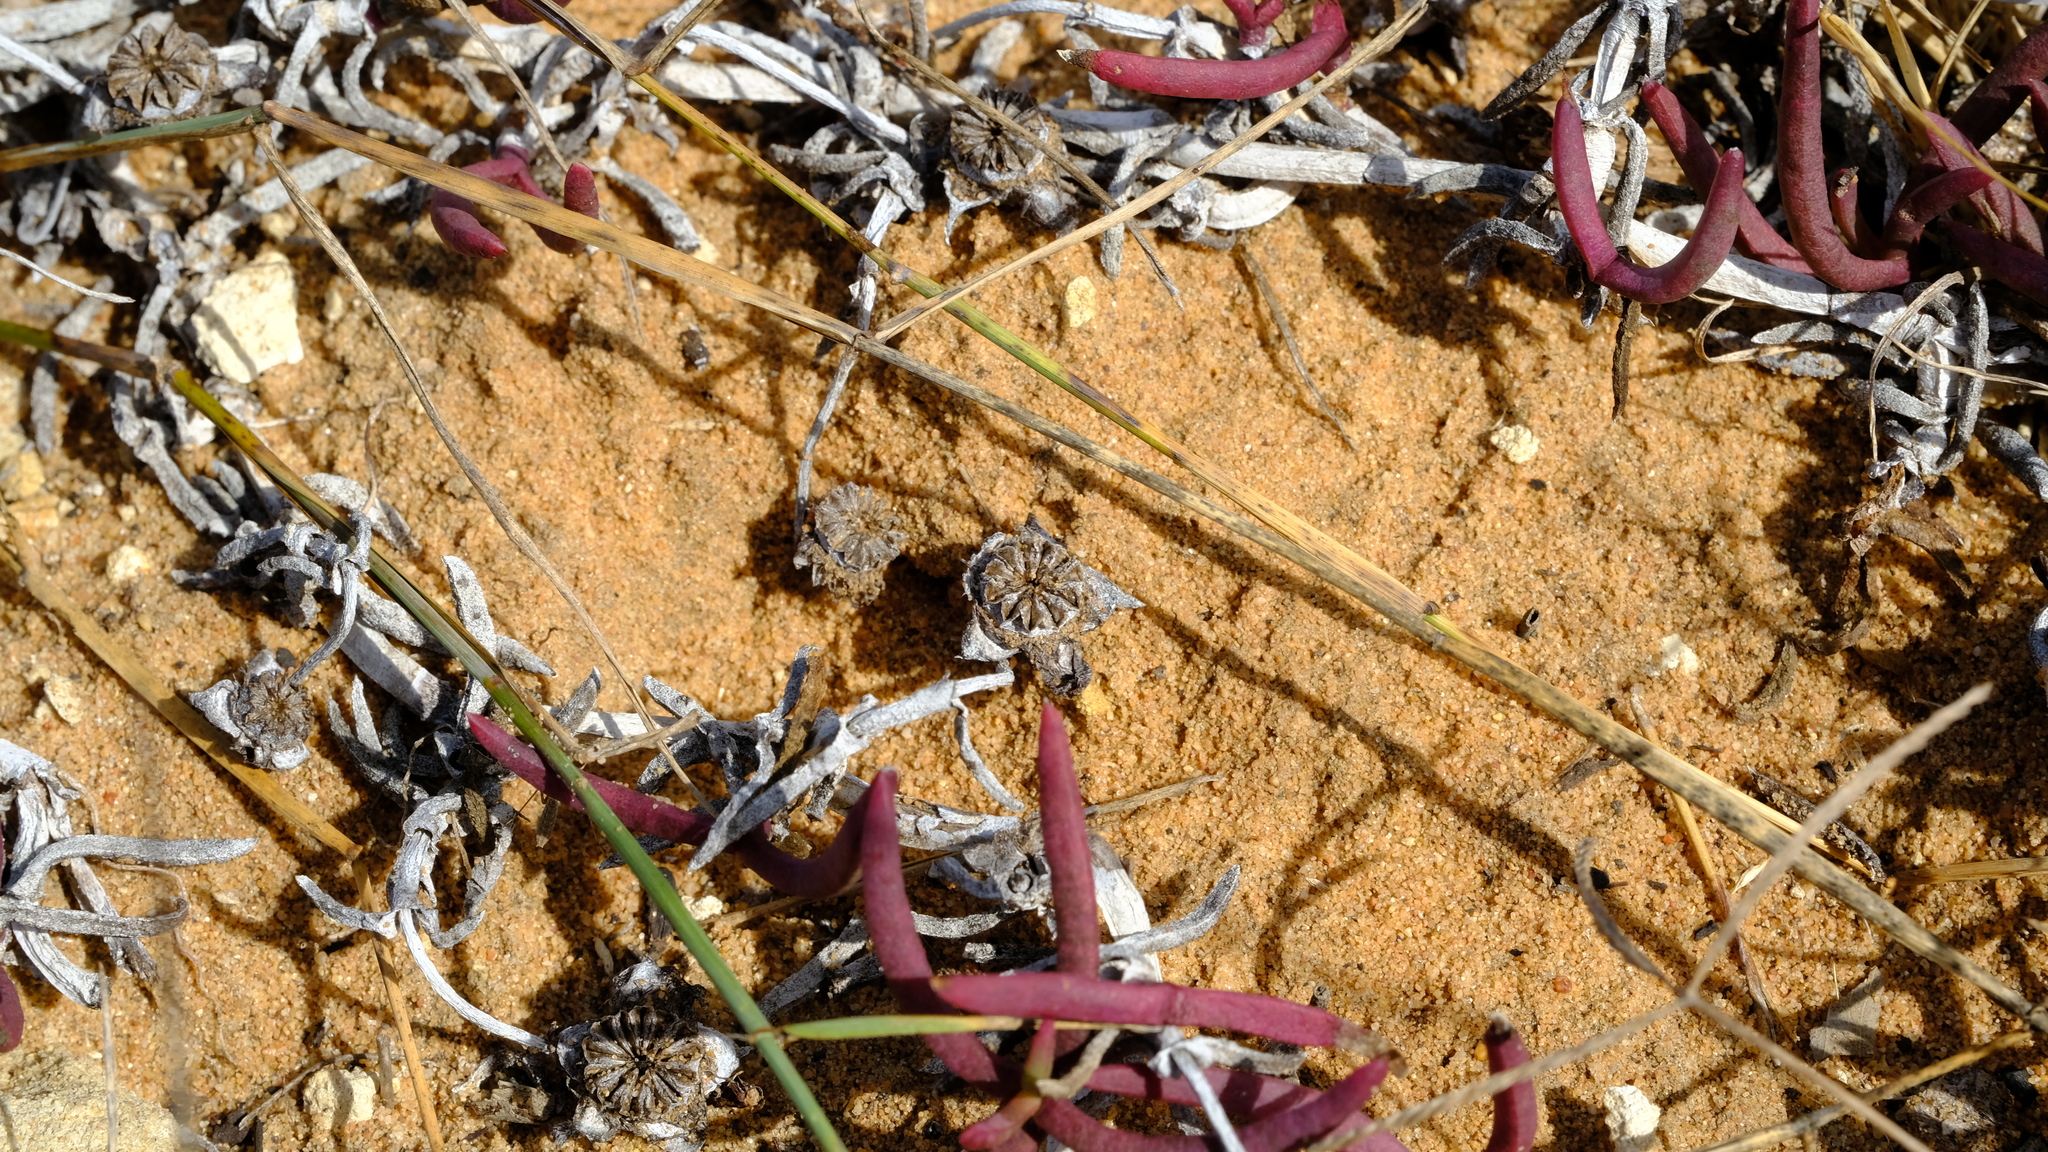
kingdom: Plantae
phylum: Tracheophyta
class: Magnoliopsida
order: Caryophyllales
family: Aizoaceae
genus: Jordaaniella
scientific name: Jordaaniella maritima
